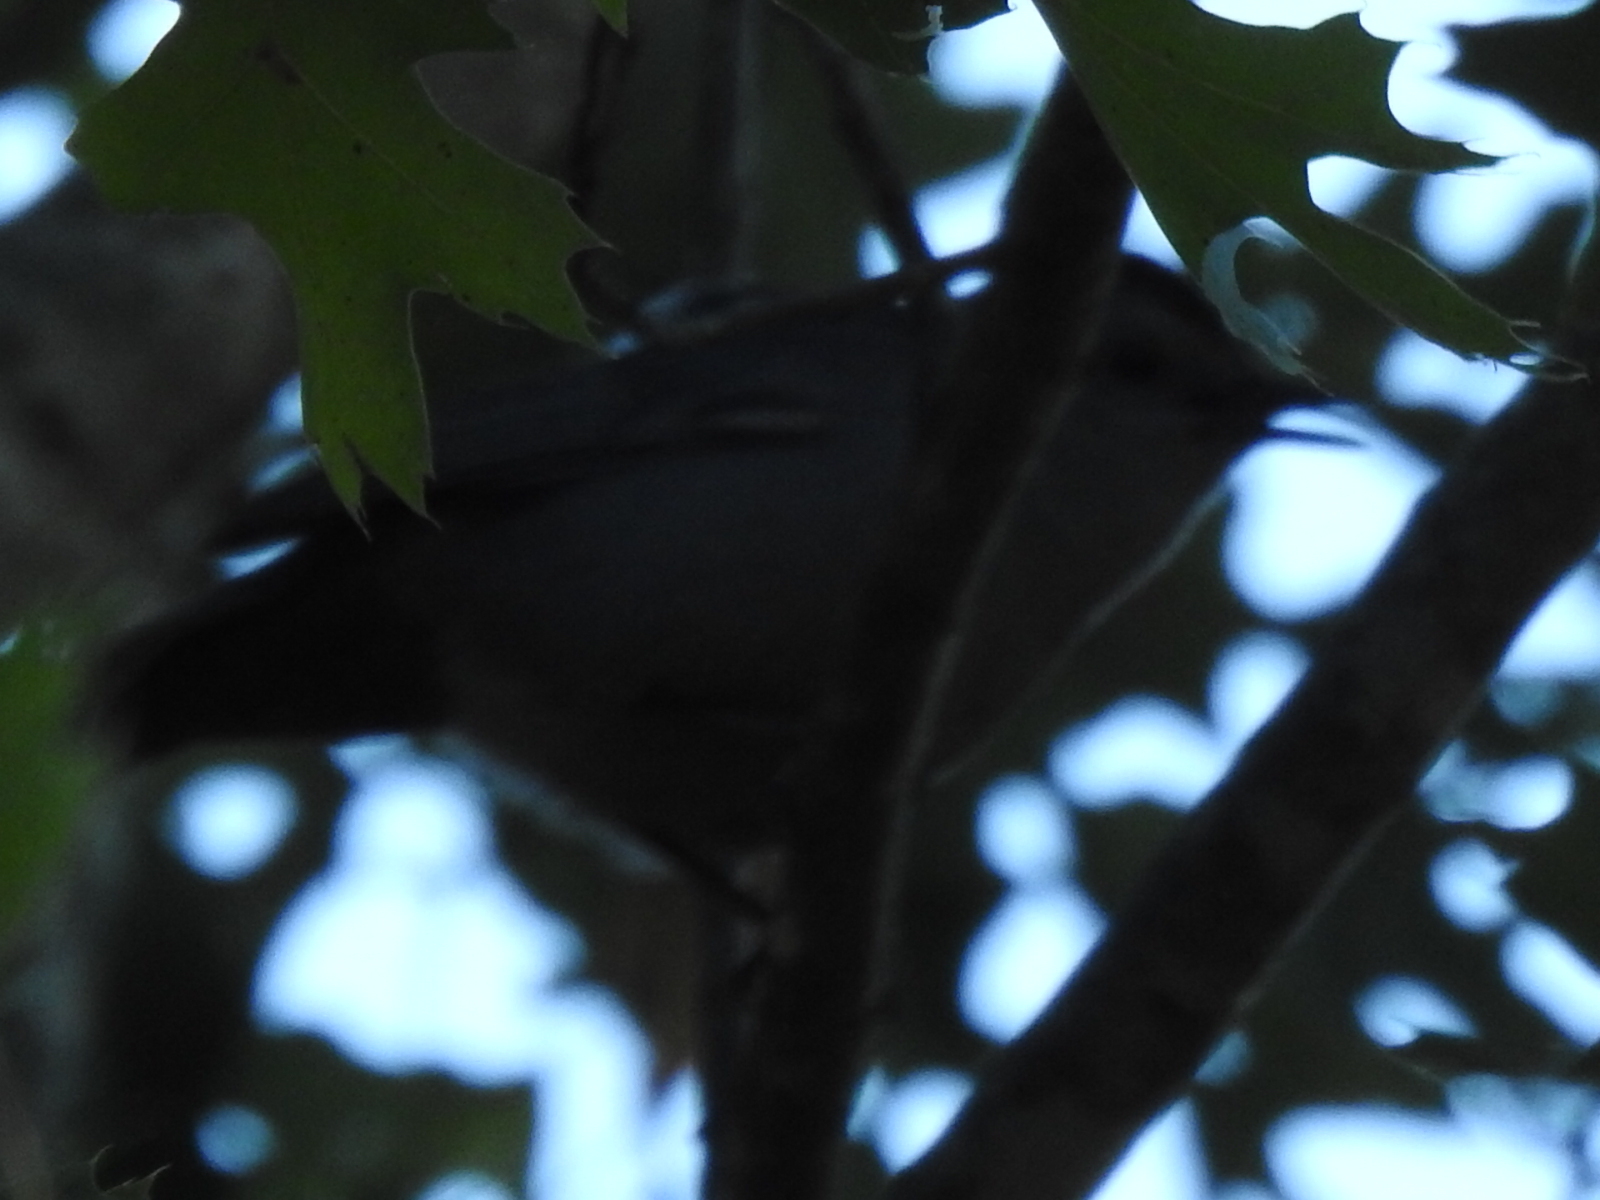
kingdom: Animalia
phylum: Chordata
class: Aves
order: Passeriformes
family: Mimidae
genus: Dumetella
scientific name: Dumetella carolinensis
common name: Gray catbird
